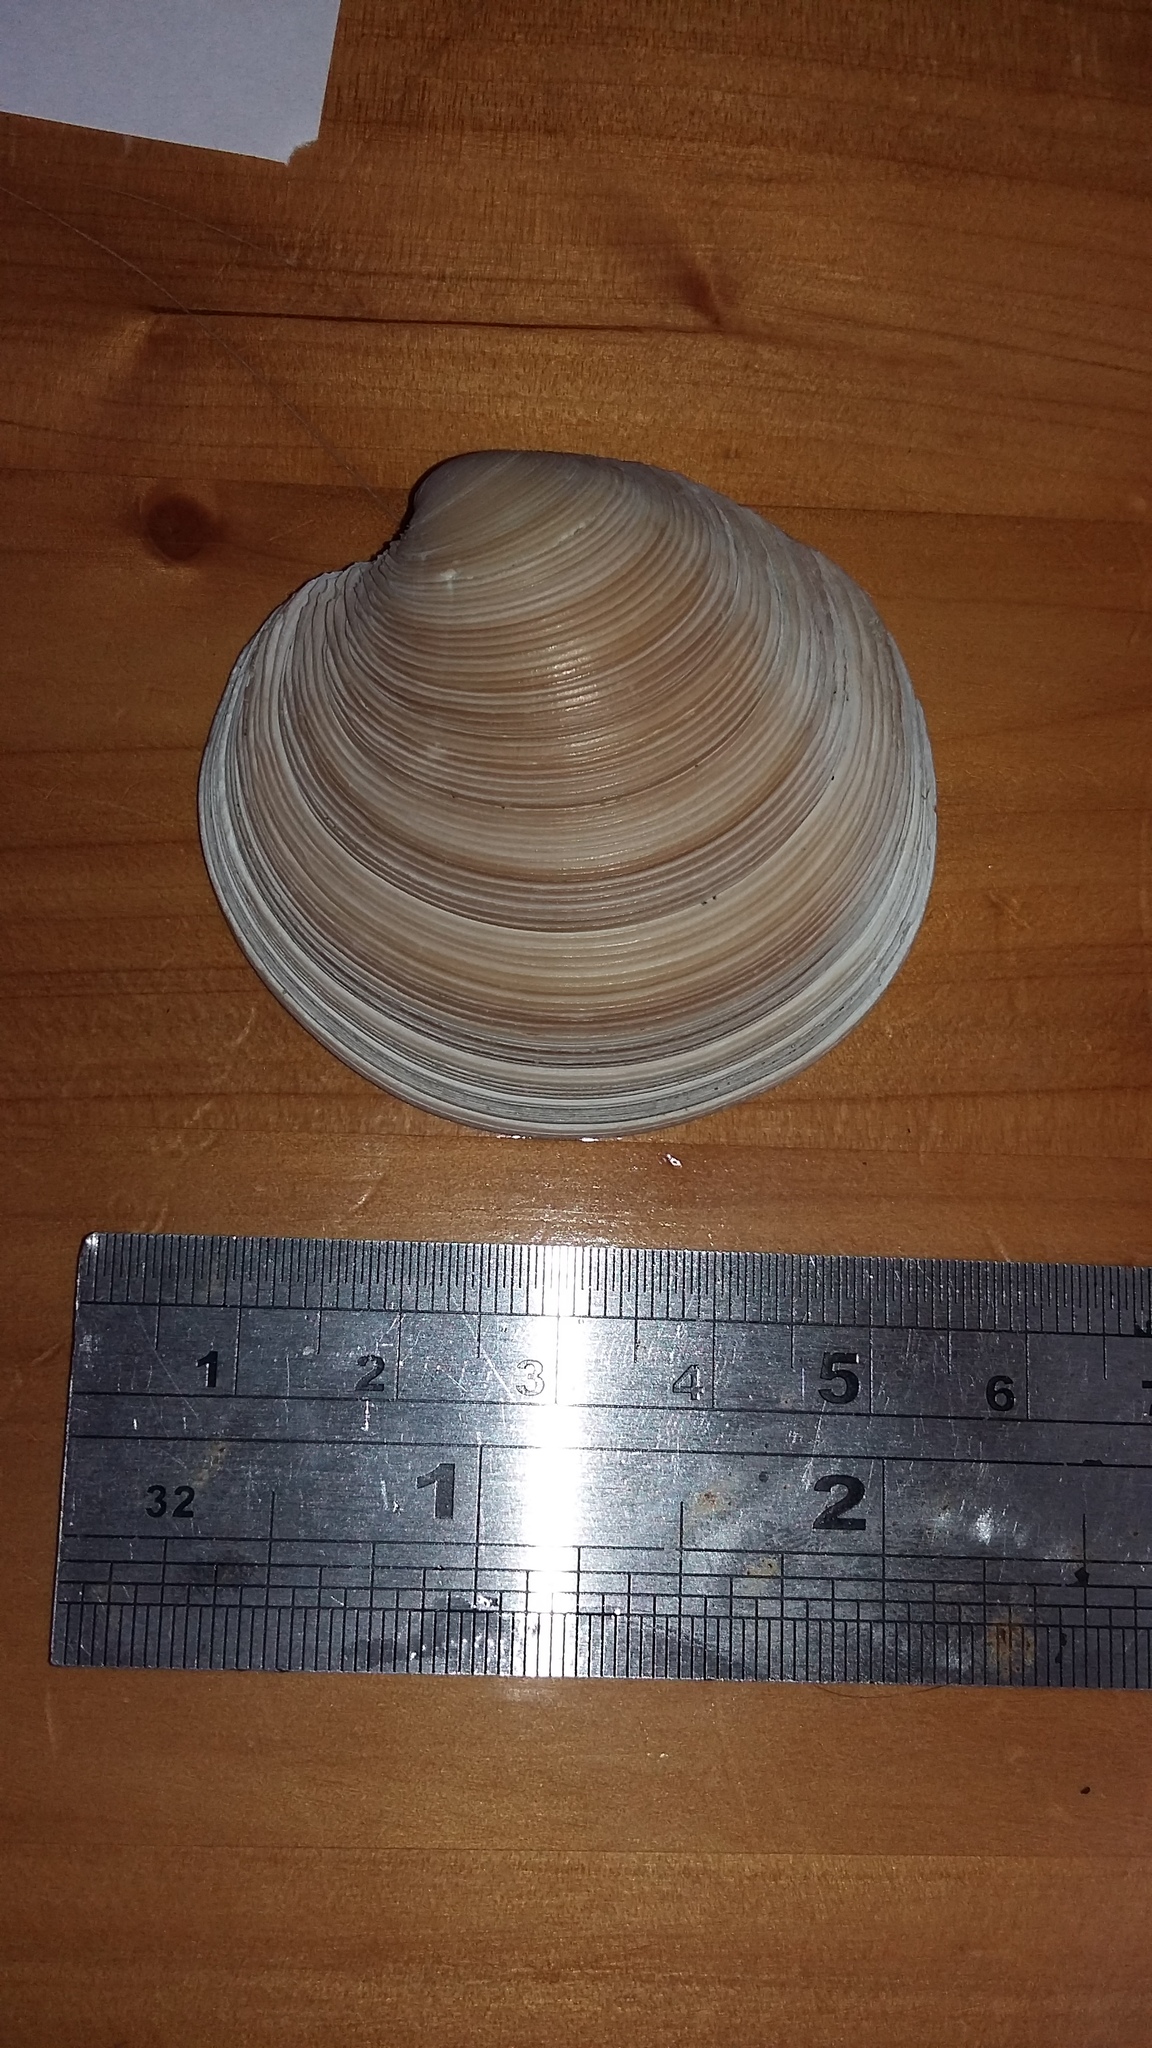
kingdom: Animalia
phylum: Mollusca
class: Bivalvia
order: Venerida
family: Veneridae
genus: Dosinia
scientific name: Dosinia anus
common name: Old-woman dosinia
